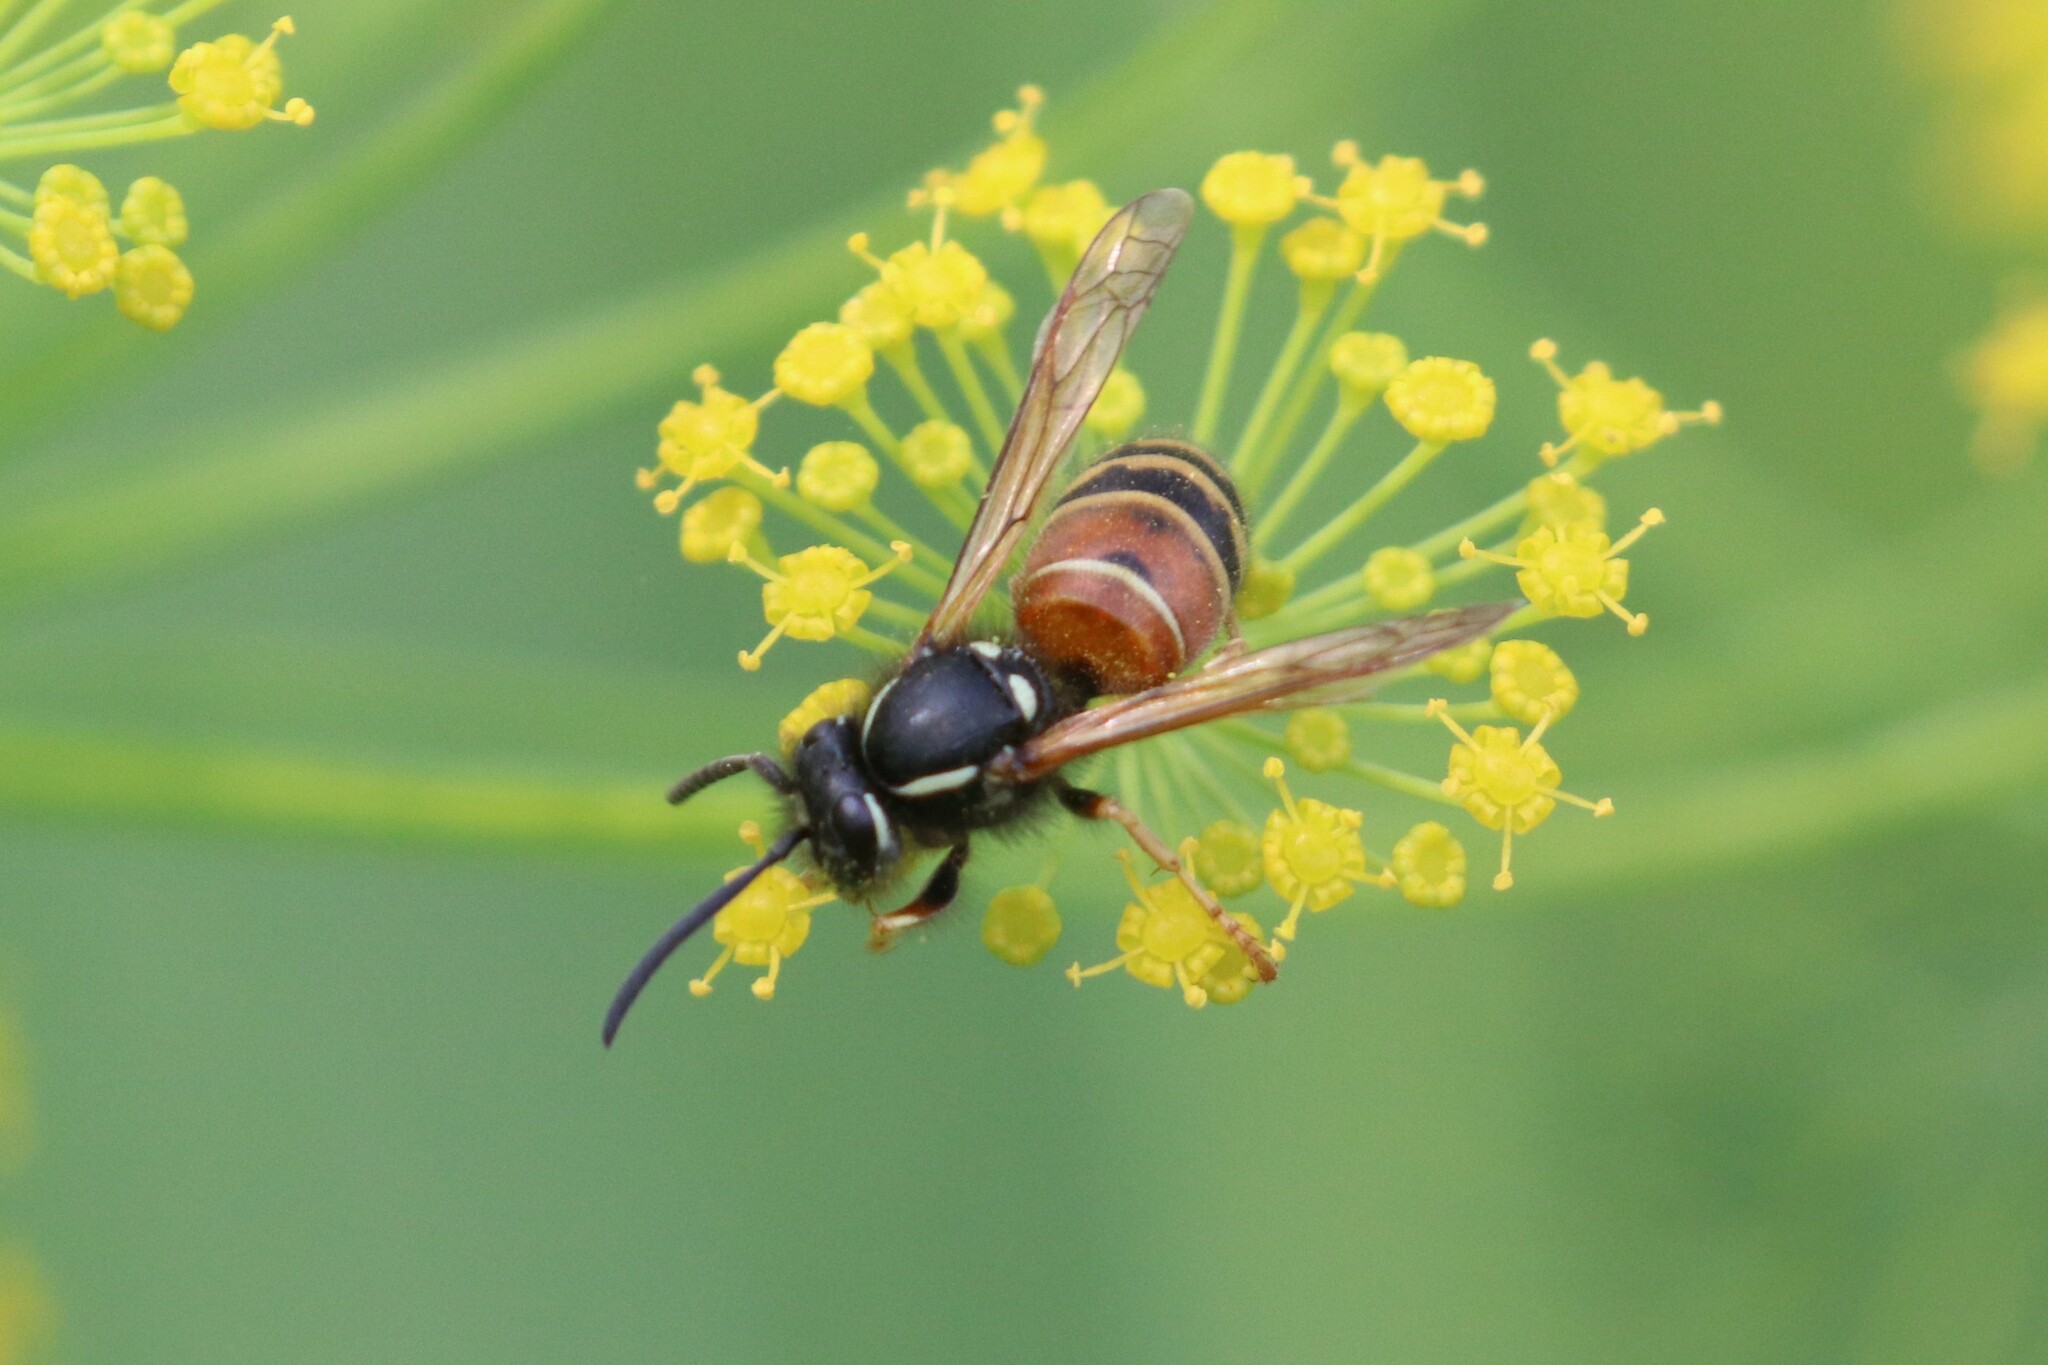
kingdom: Animalia
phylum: Arthropoda
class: Insecta
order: Hymenoptera
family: Vespidae
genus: Vespula
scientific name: Vespula rufa
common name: Red wasp
